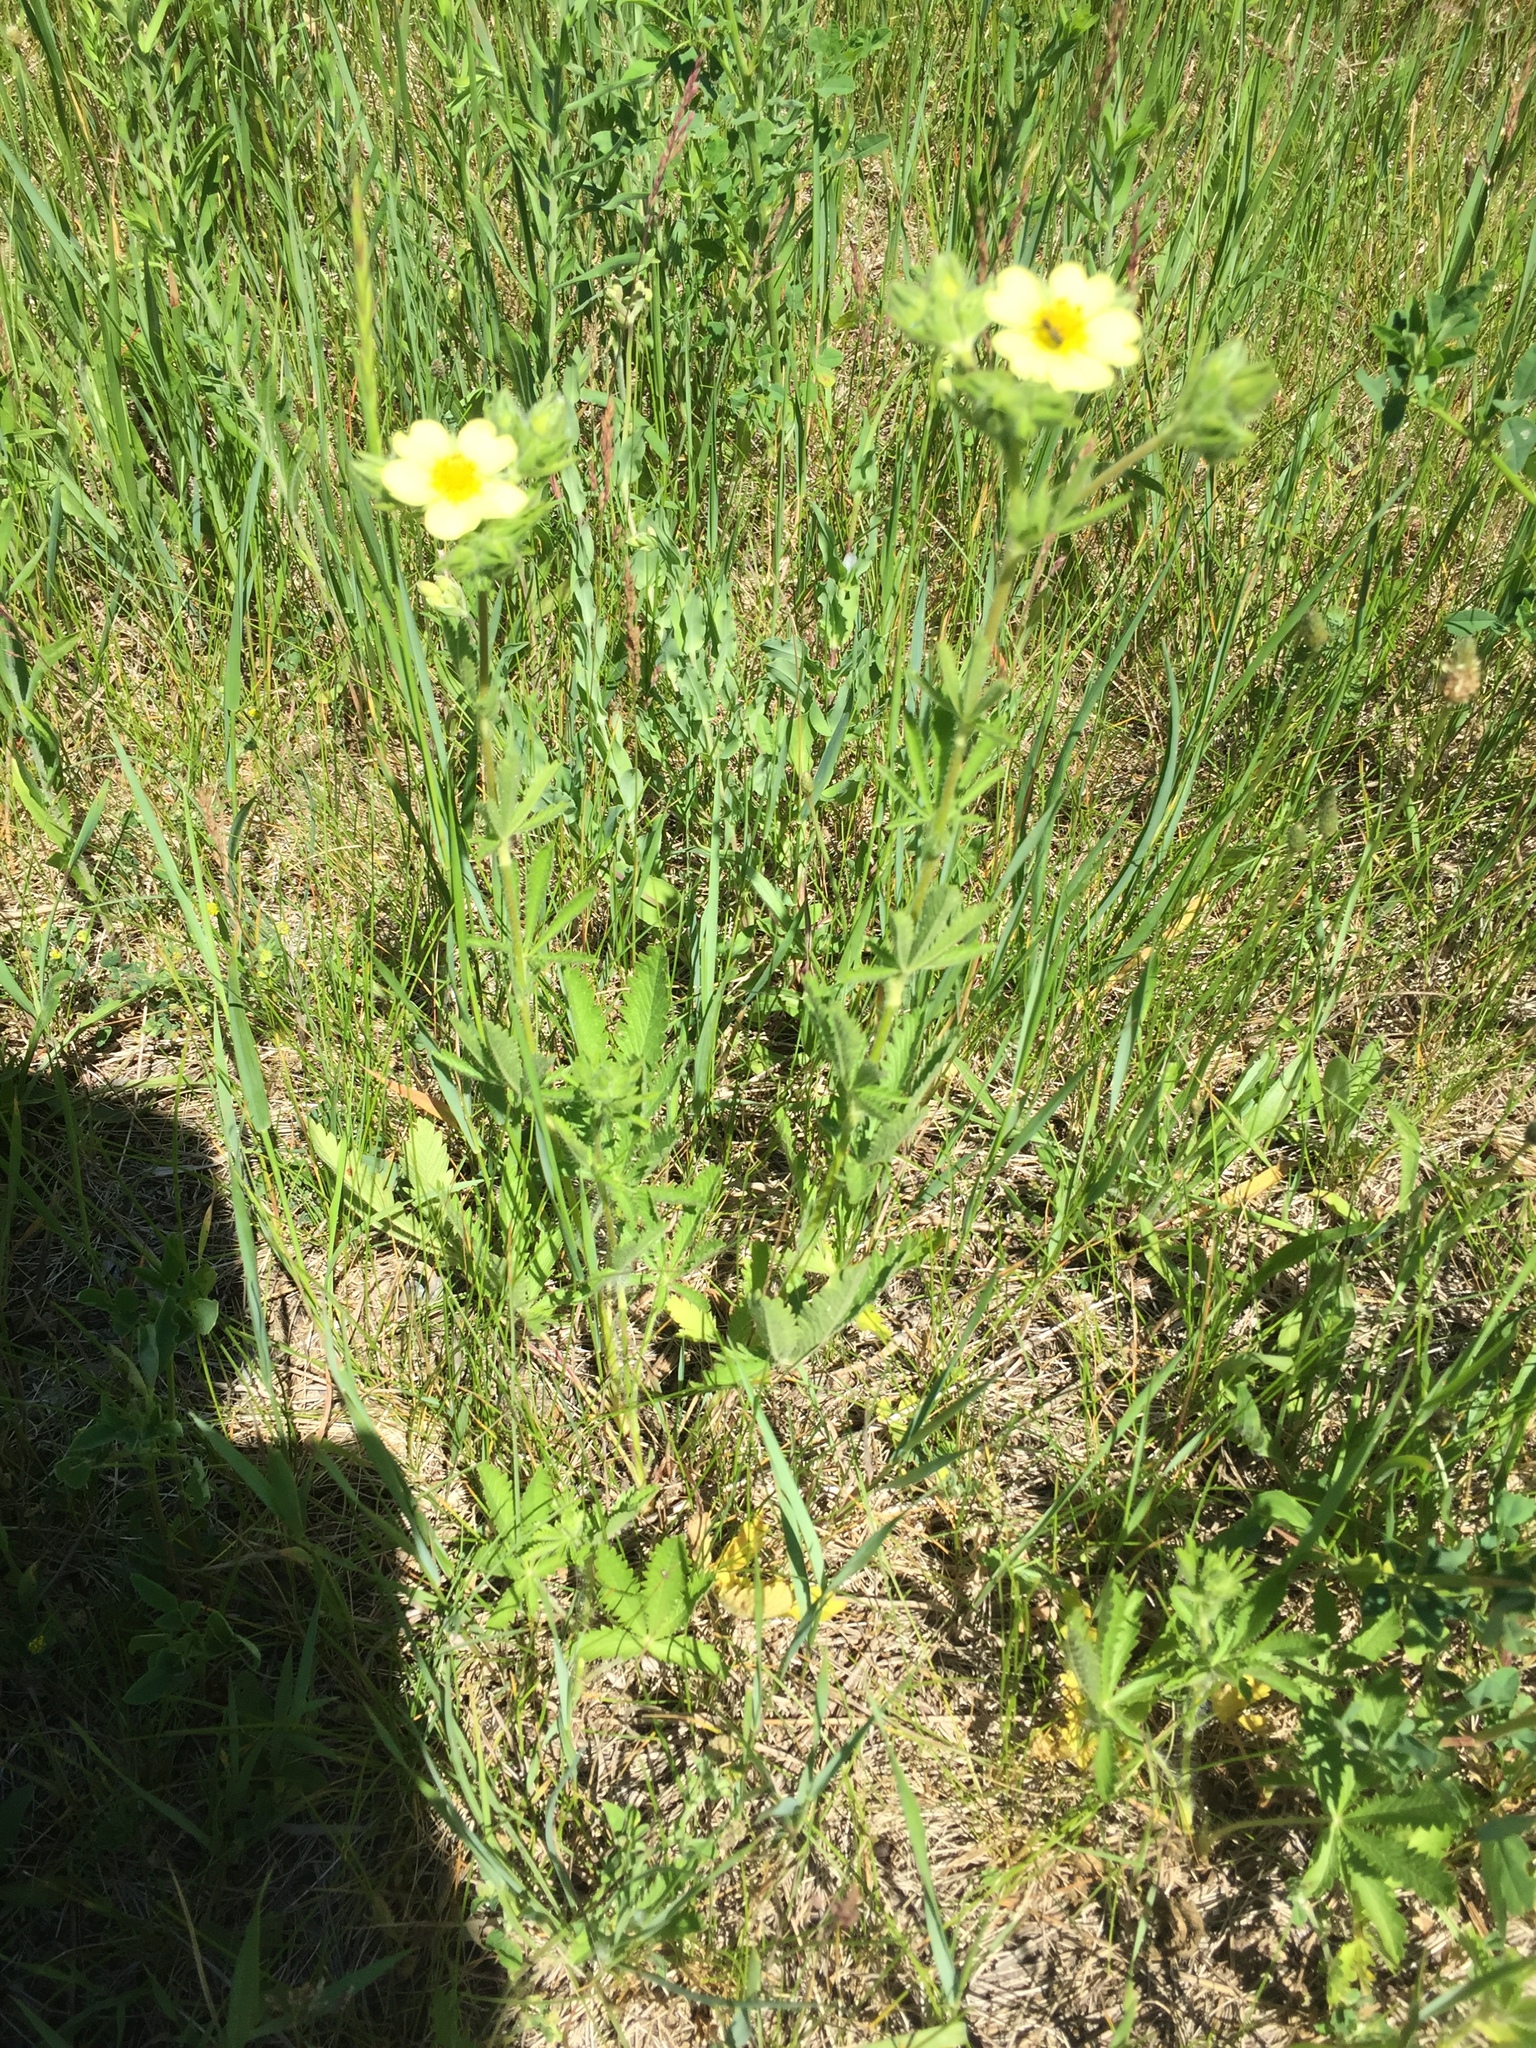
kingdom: Plantae
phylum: Tracheophyta
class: Magnoliopsida
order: Rosales
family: Rosaceae
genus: Potentilla
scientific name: Potentilla recta
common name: Sulphur cinquefoil
